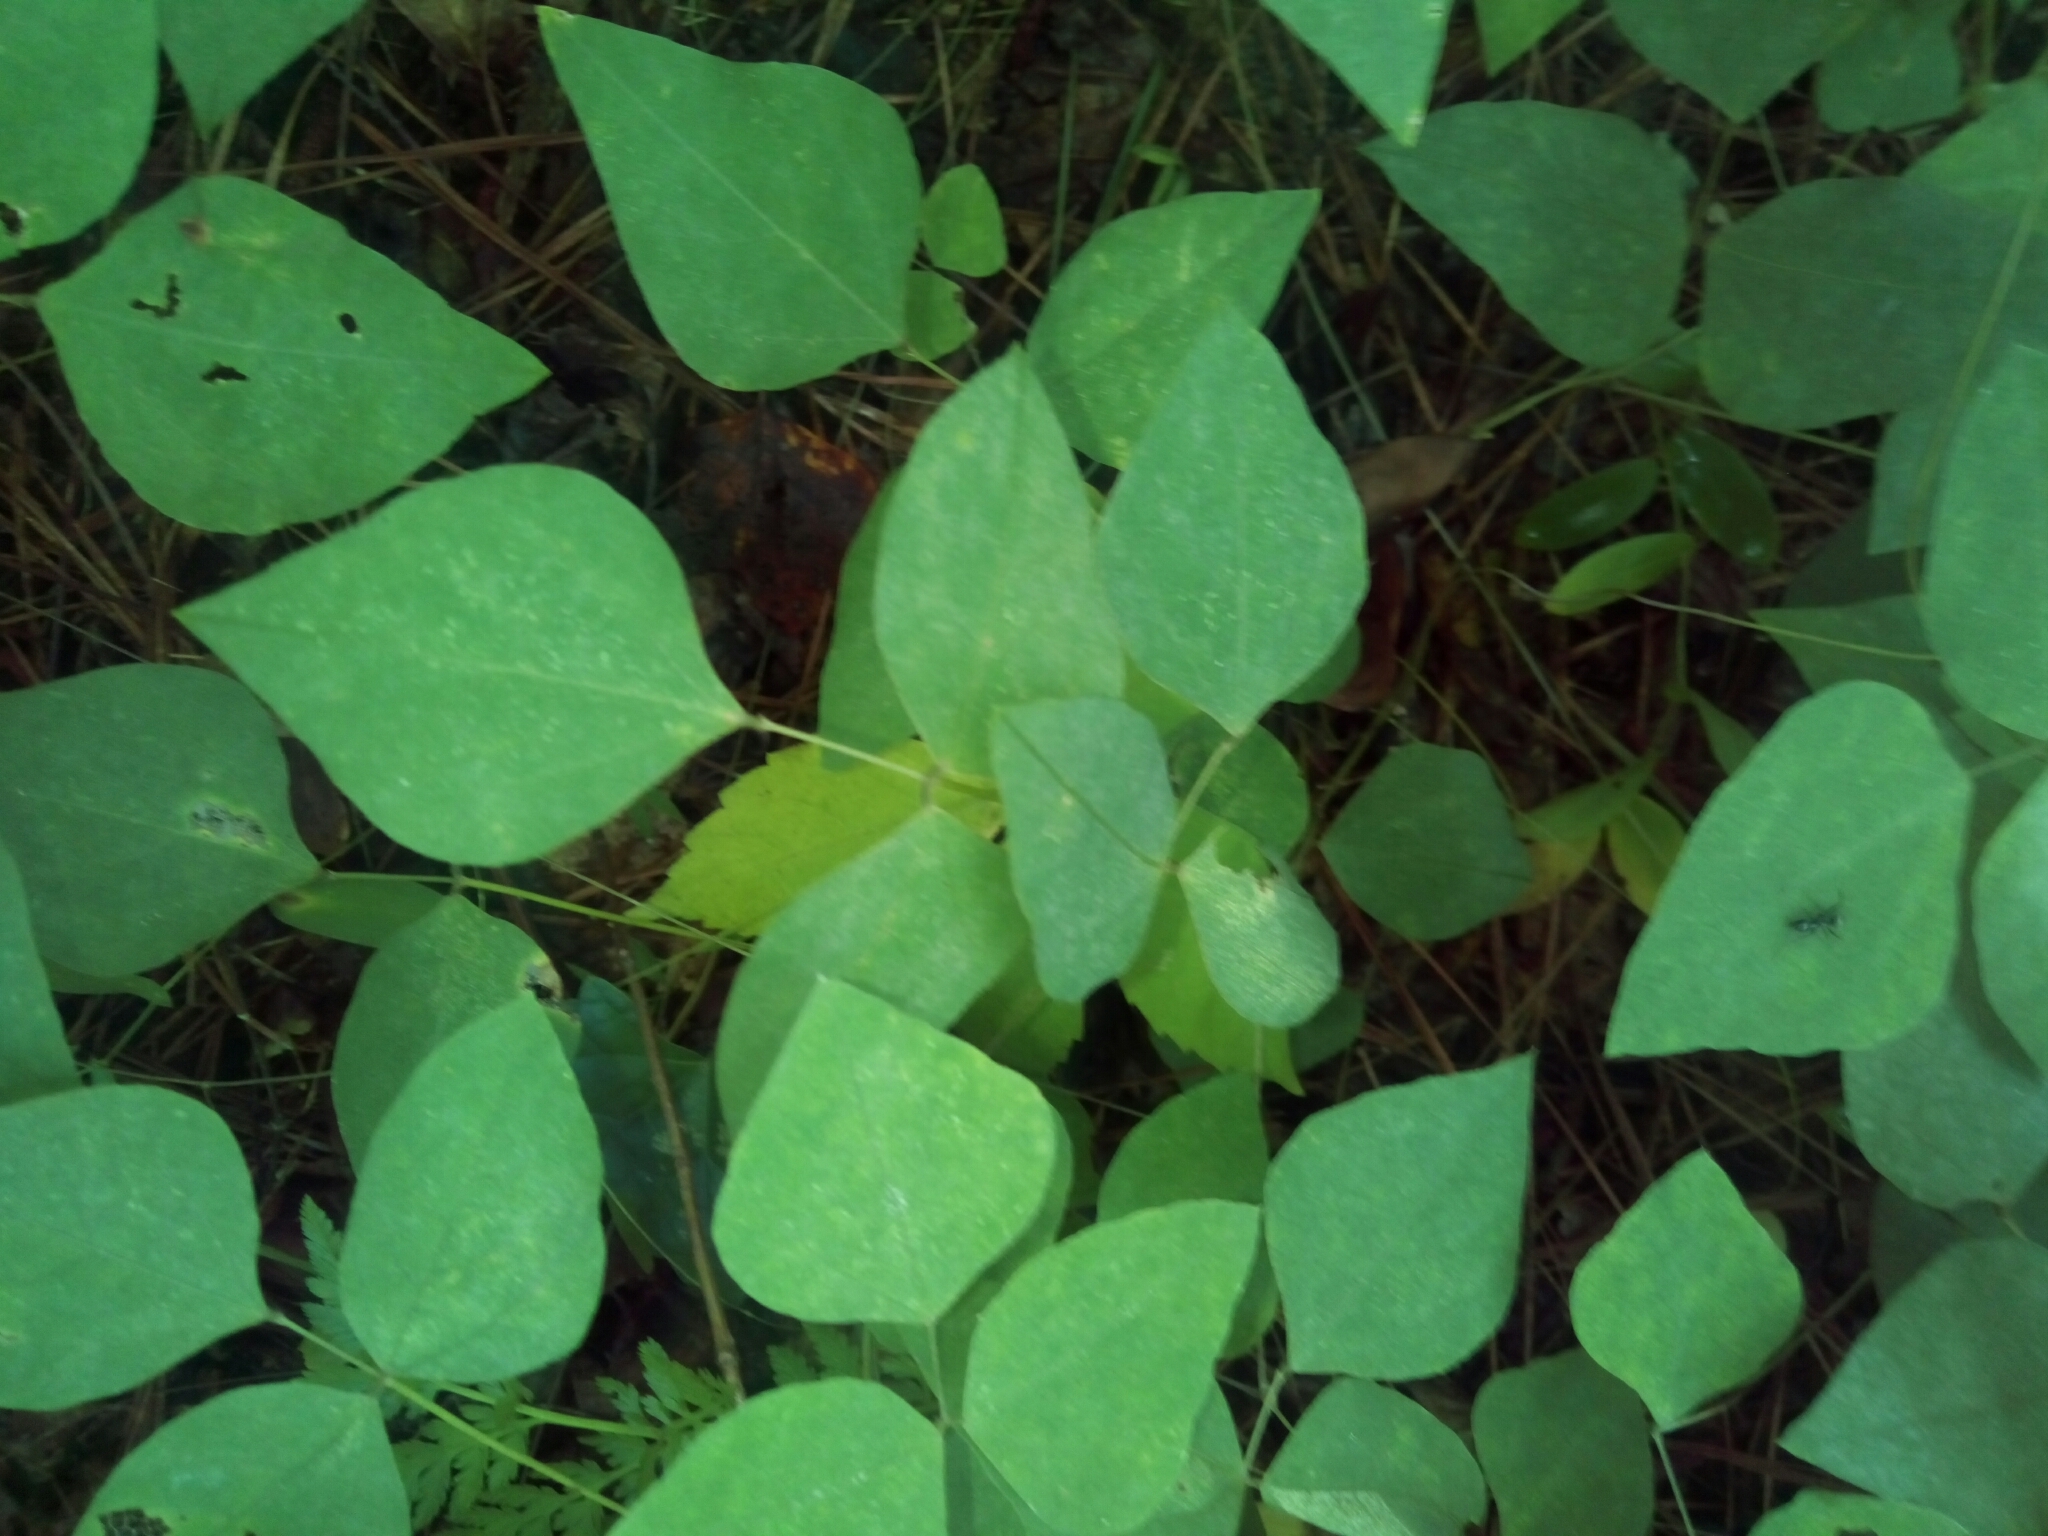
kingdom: Plantae
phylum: Tracheophyta
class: Magnoliopsida
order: Fabales
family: Fabaceae
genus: Amphicarpaea
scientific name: Amphicarpaea bracteata
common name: American hog peanut
